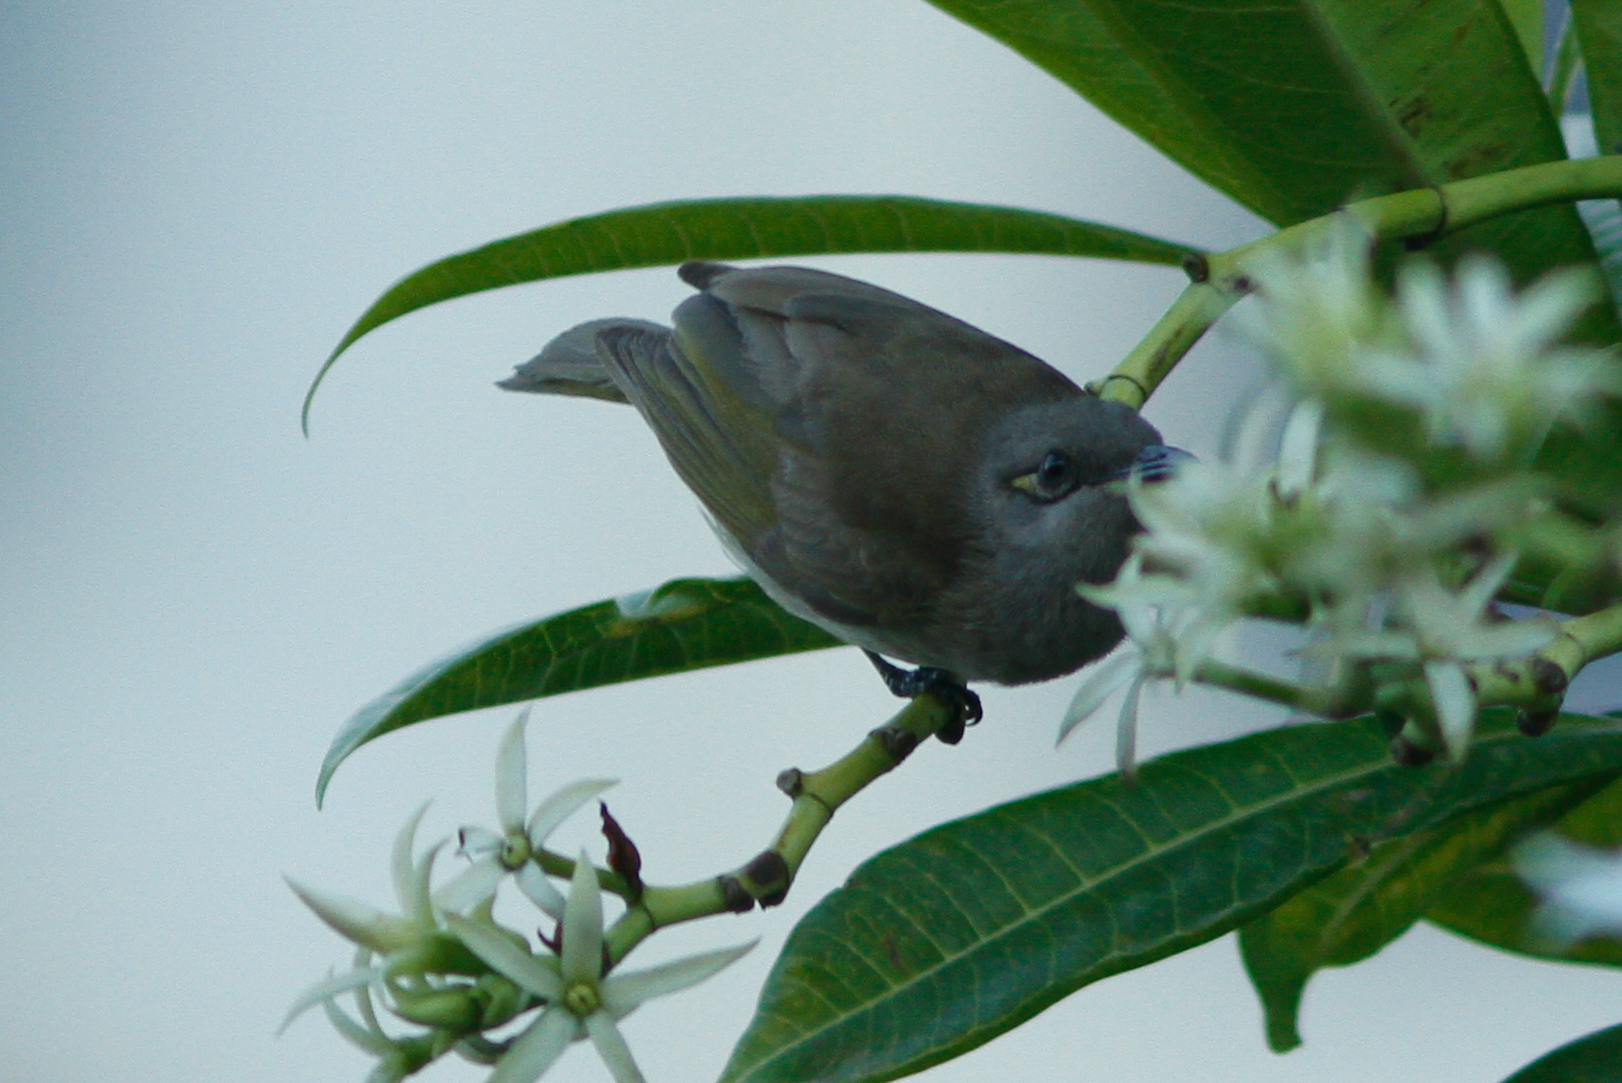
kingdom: Animalia
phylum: Chordata
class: Aves
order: Passeriformes
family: Meliphagidae
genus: Lichmera
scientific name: Lichmera indistincta
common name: Brown honeyeater
